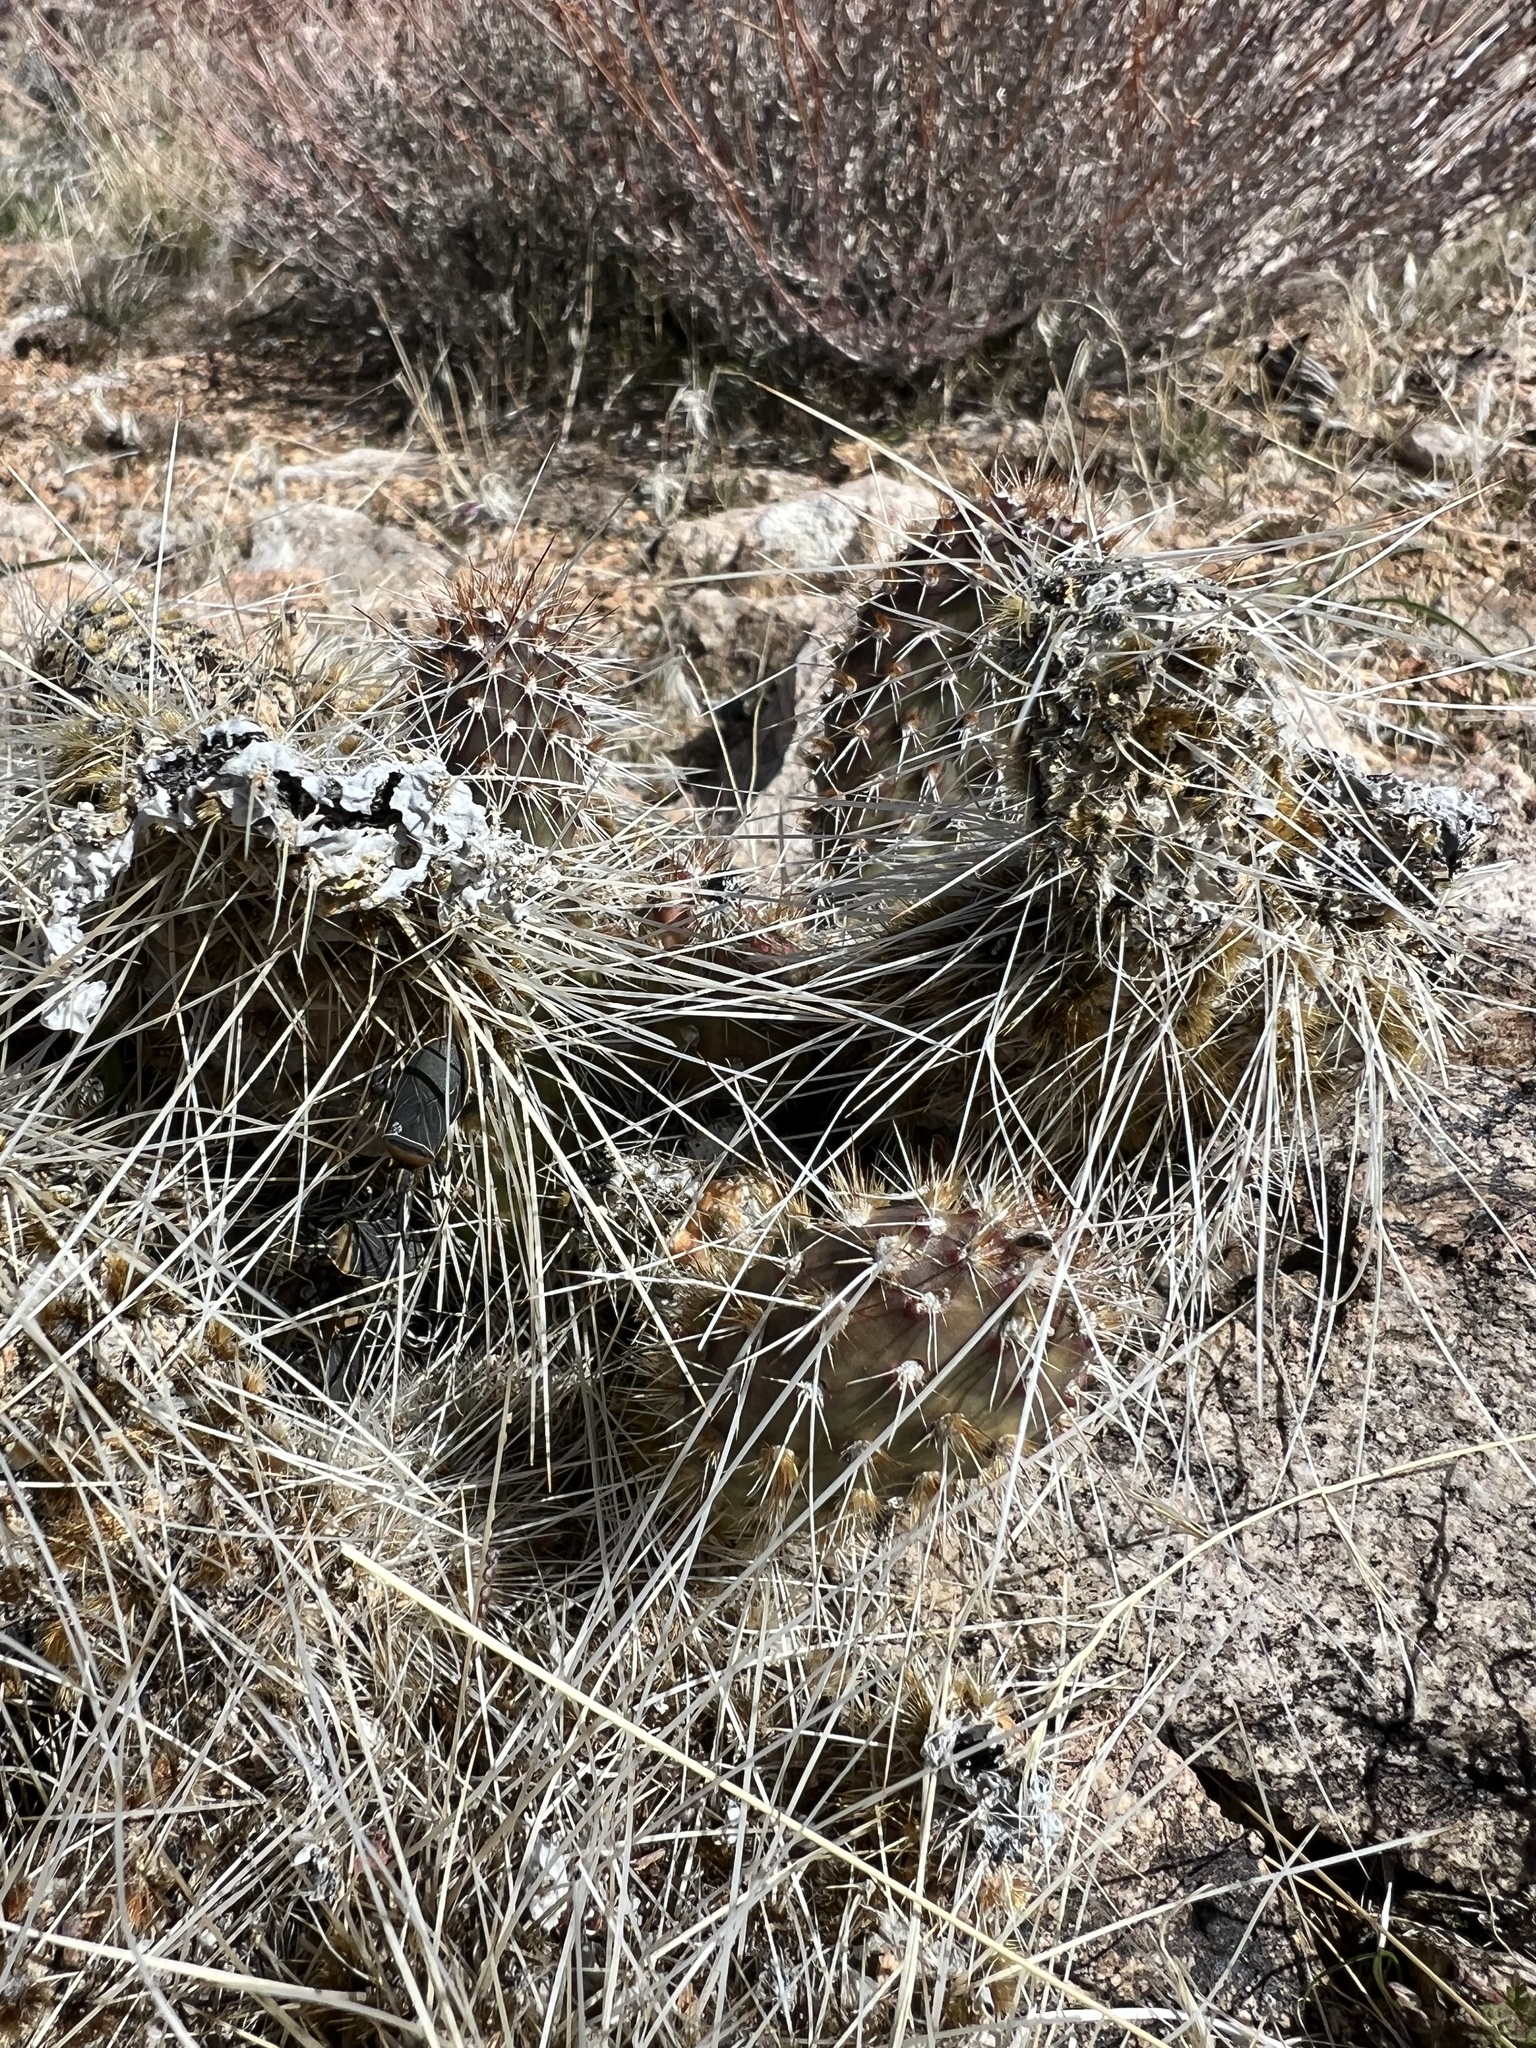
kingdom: Plantae
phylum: Tracheophyta
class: Magnoliopsida
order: Caryophyllales
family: Cactaceae
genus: Opuntia
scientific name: Opuntia polyacantha
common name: Plains prickly-pear
